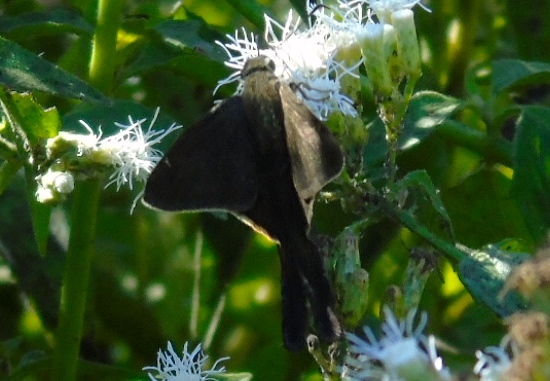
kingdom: Animalia
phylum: Arthropoda
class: Insecta
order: Lepidoptera
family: Hesperiidae
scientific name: Hesperiidae
